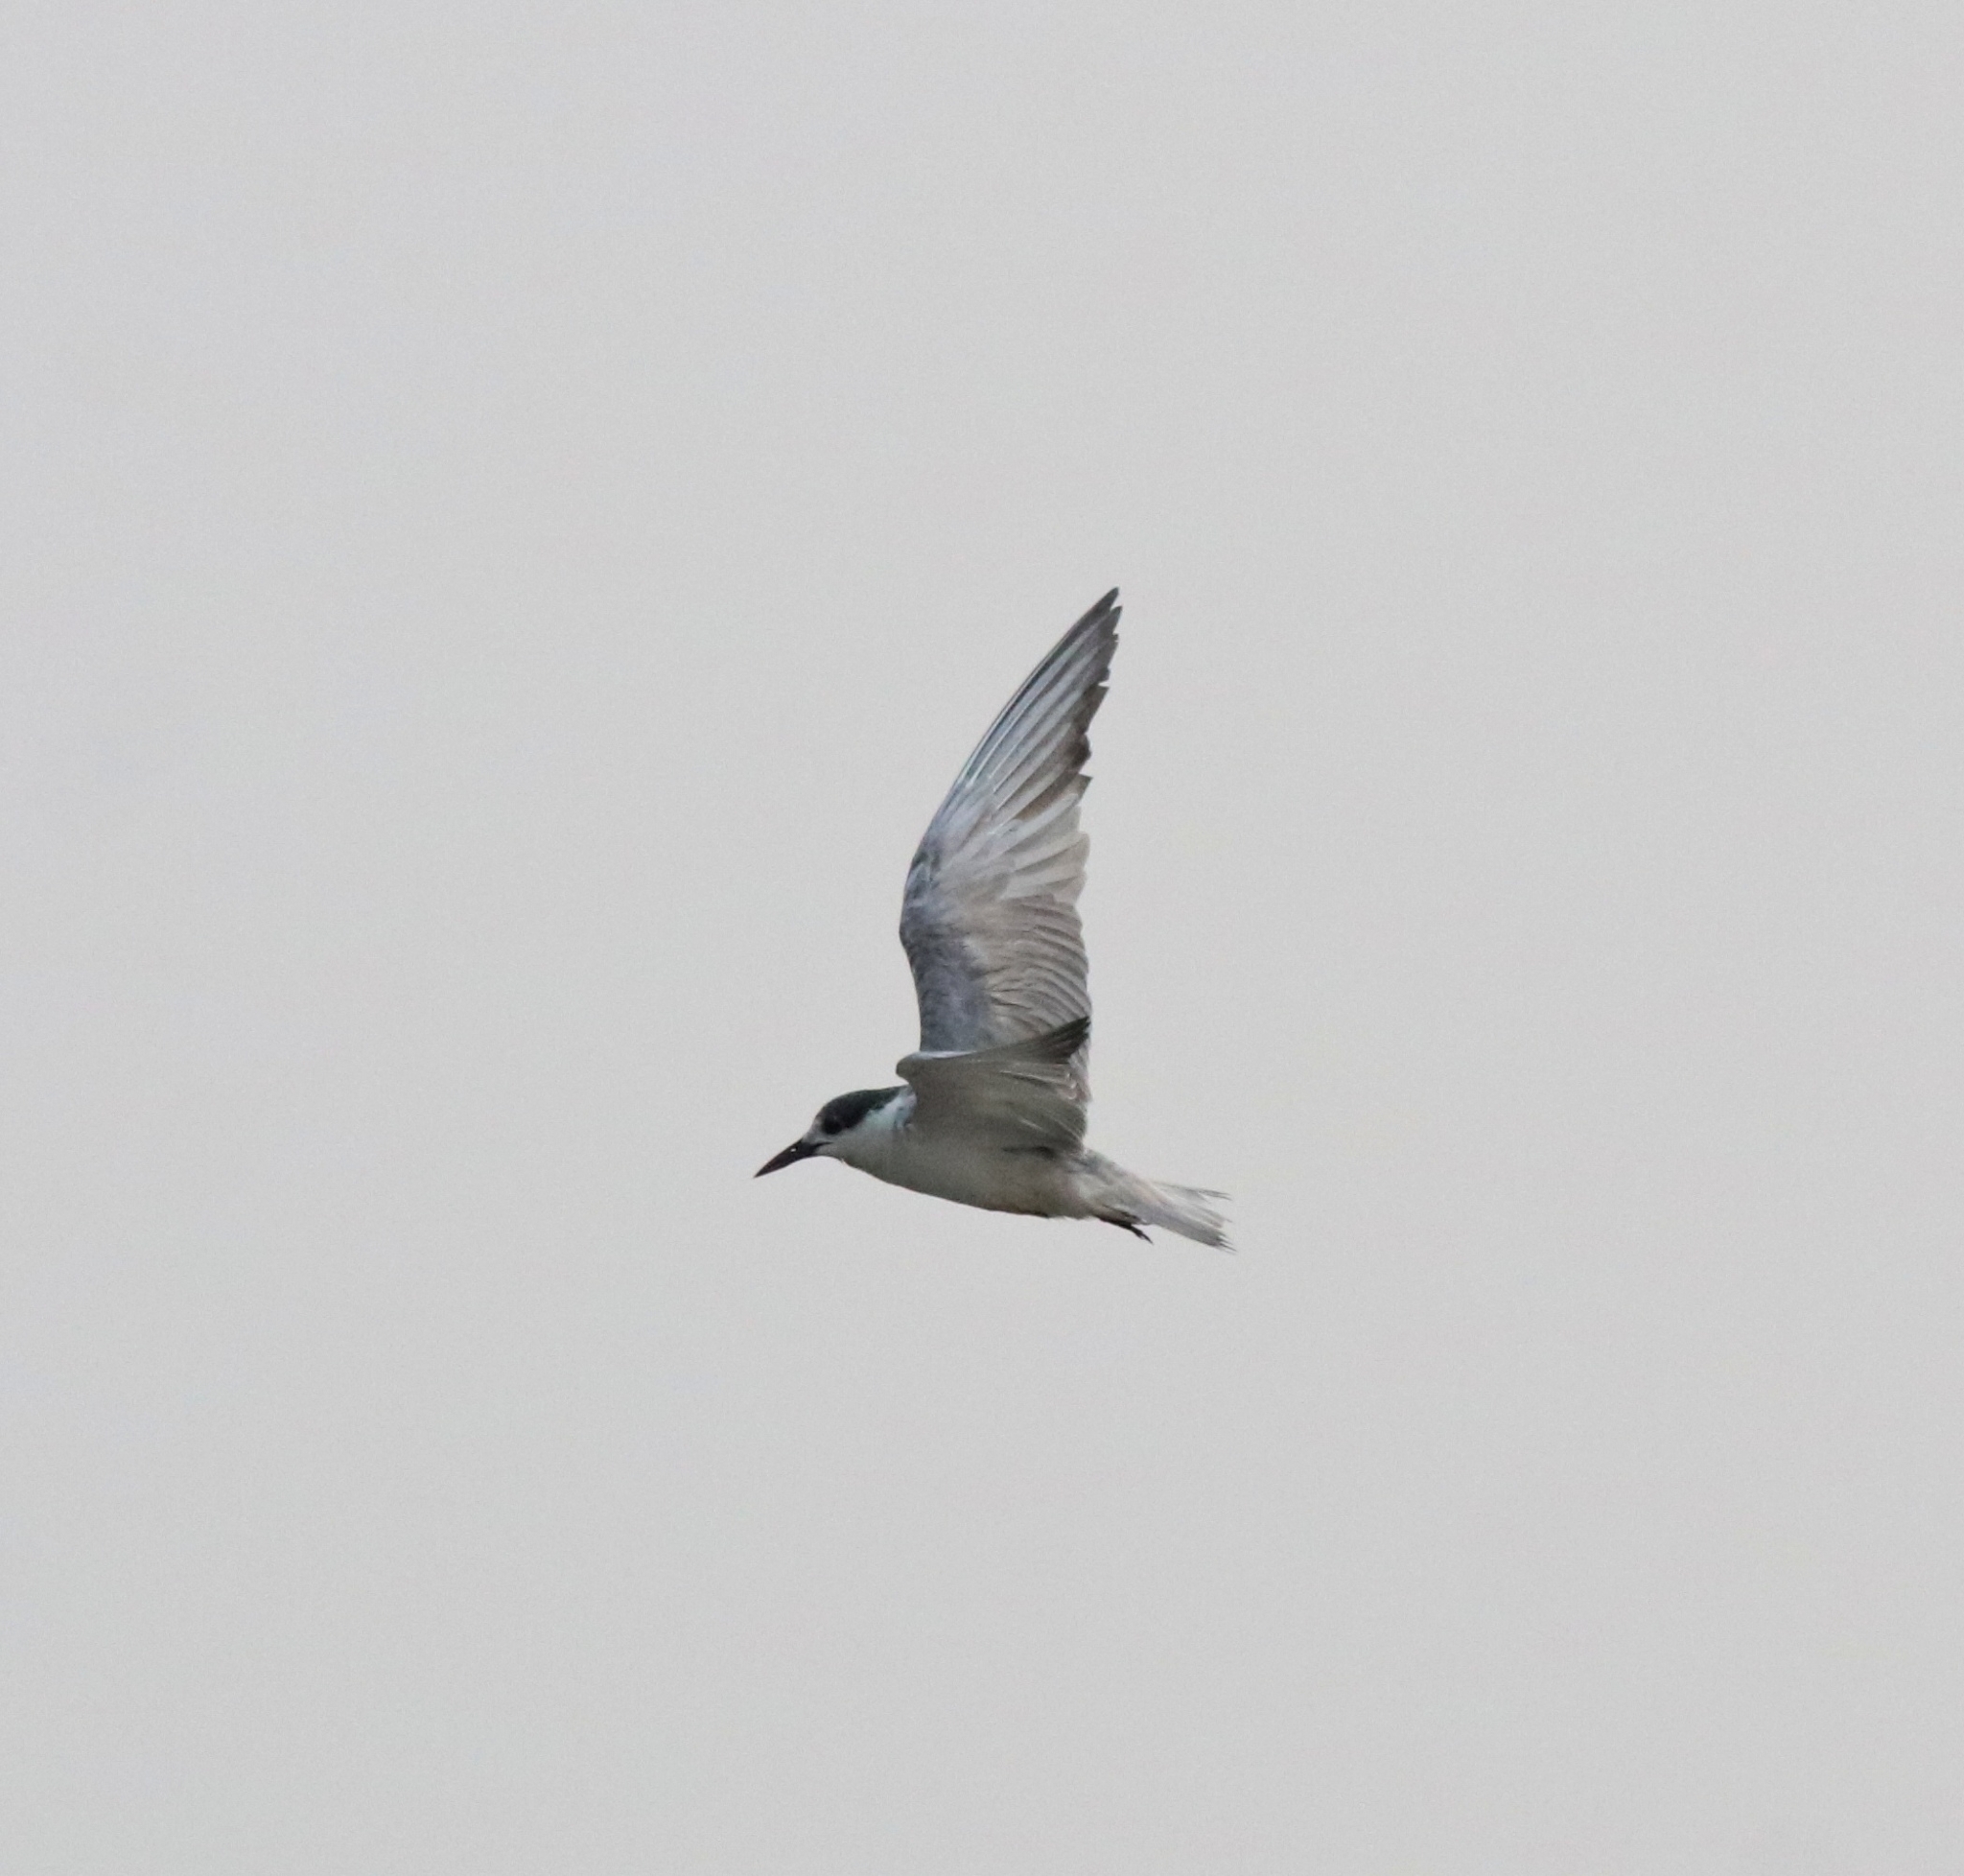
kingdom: Animalia
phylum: Chordata
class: Aves
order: Charadriiformes
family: Laridae
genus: Chlidonias
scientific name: Chlidonias hybrida
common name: Whiskered tern
